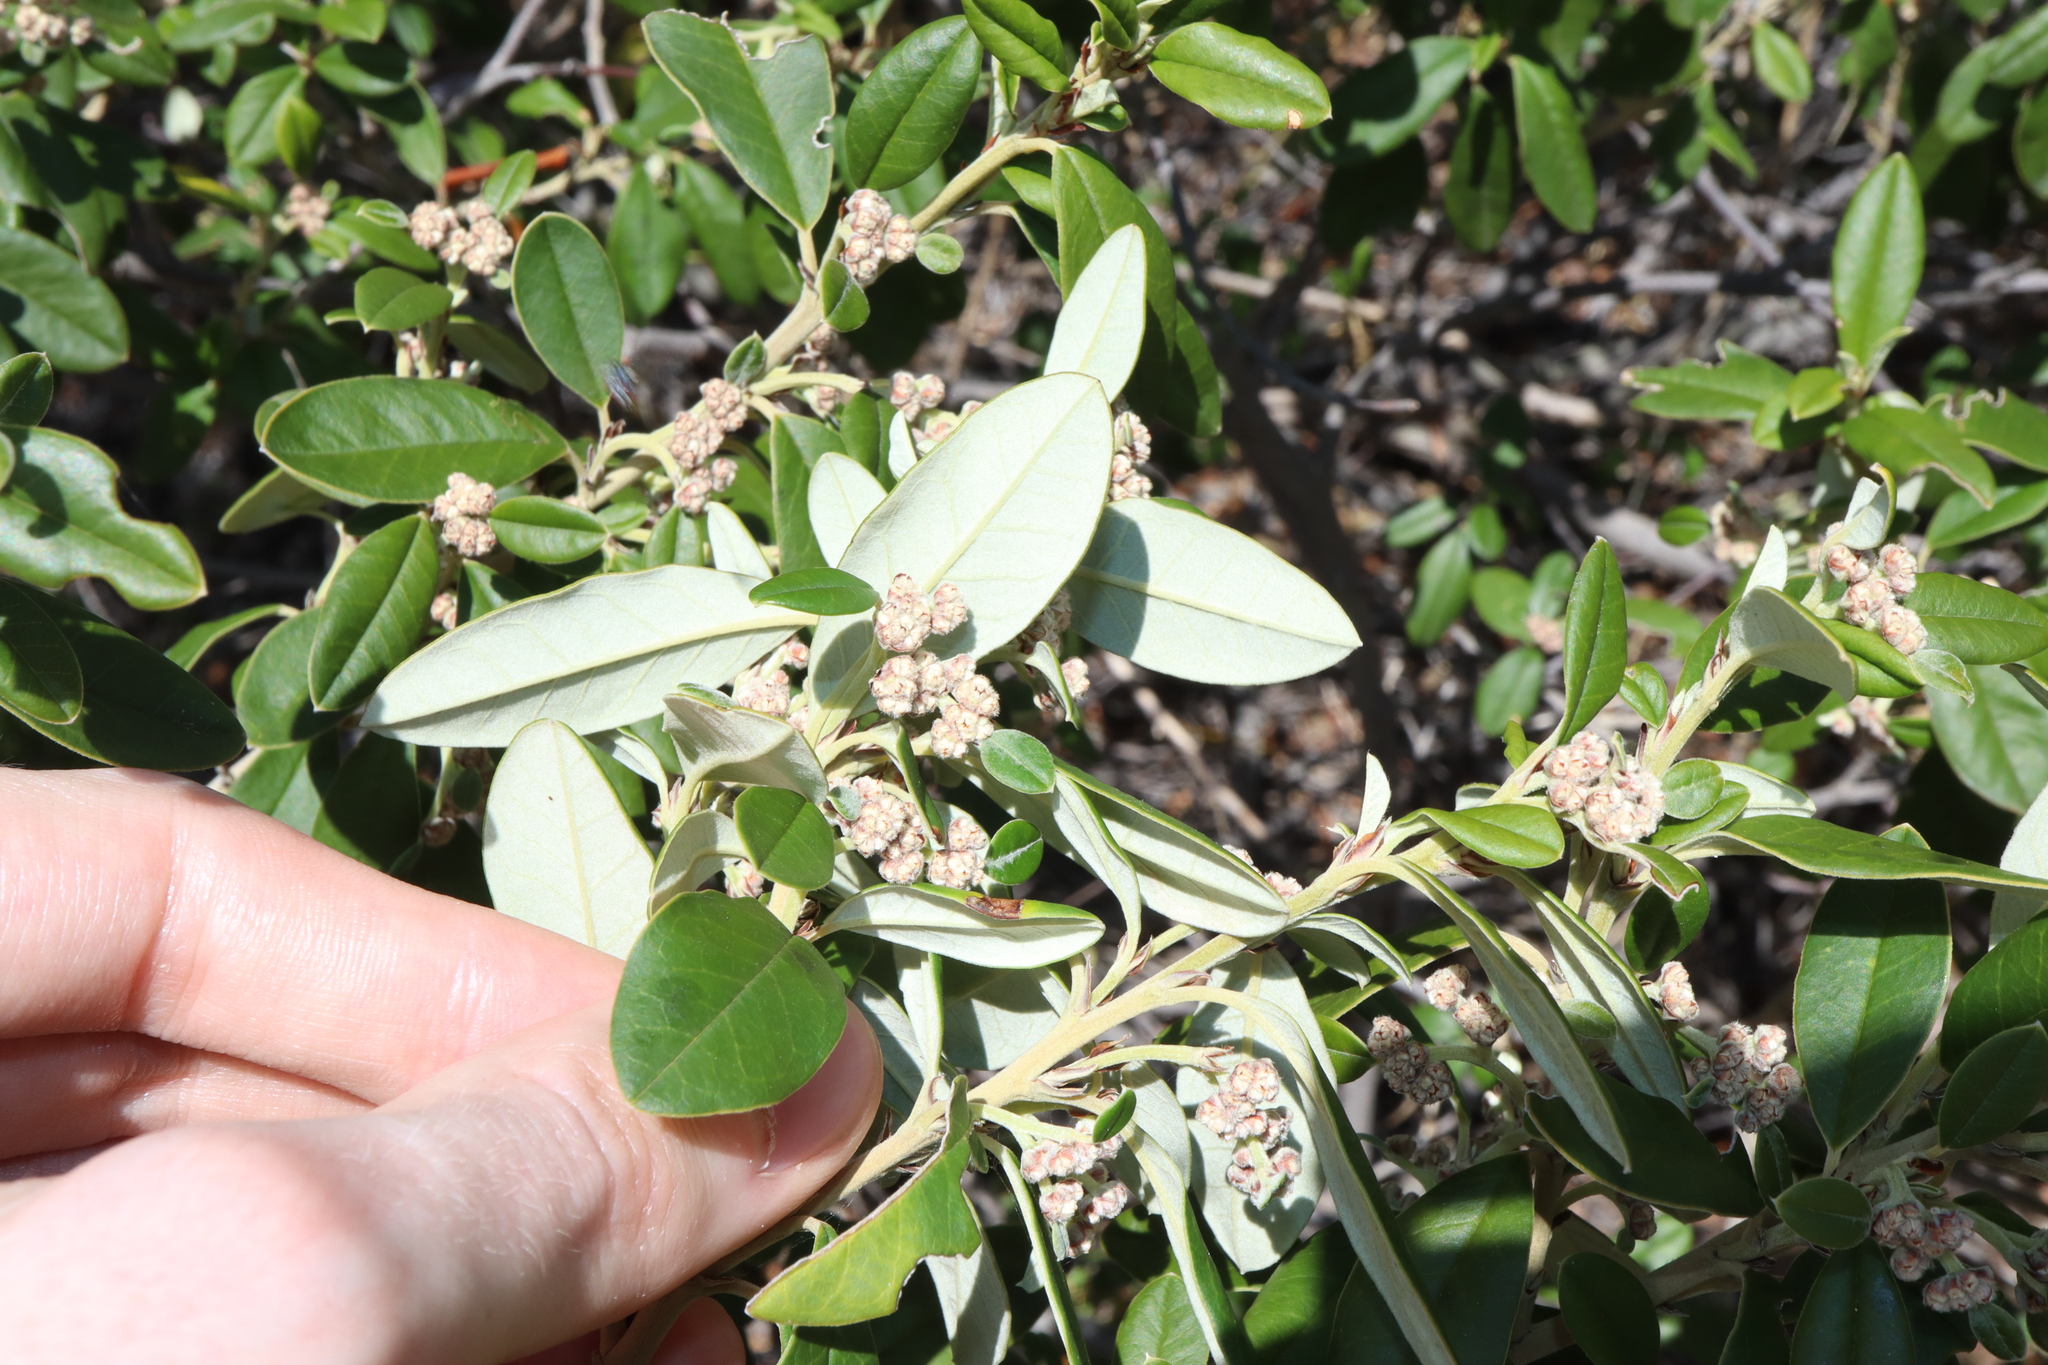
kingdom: Plantae
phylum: Tracheophyta
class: Magnoliopsida
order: Rosales
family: Rhamnaceae
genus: Spyridium
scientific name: Spyridium globulosum
